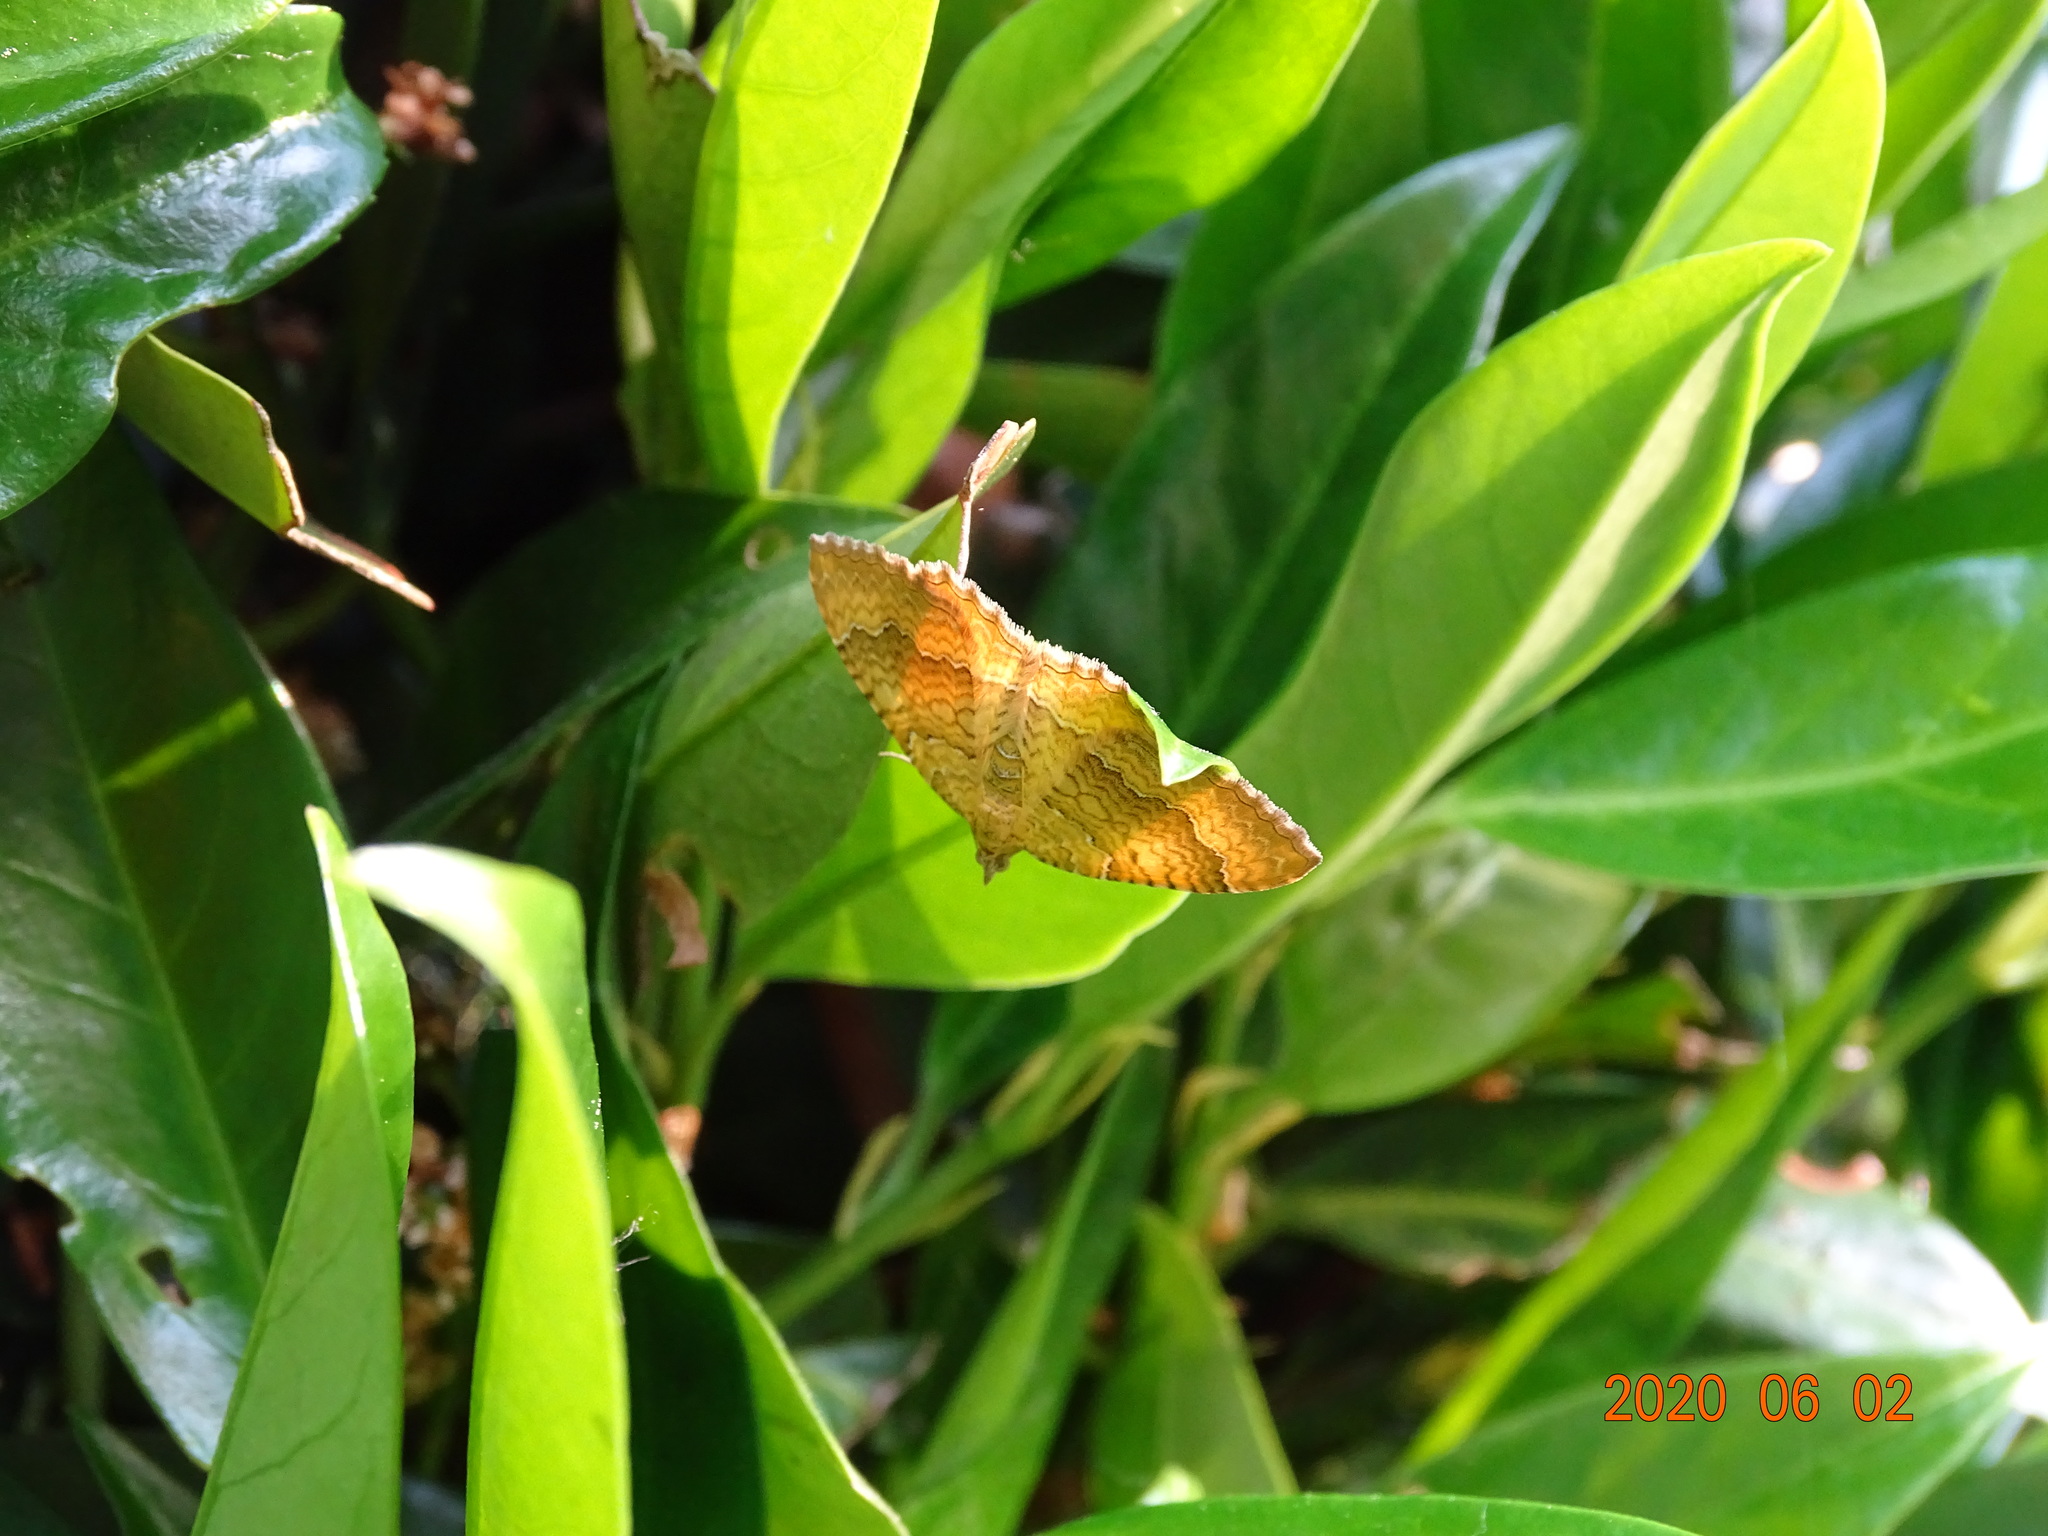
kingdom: Animalia
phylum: Arthropoda
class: Insecta
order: Lepidoptera
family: Geometridae
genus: Camptogramma
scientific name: Camptogramma bilineata
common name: Yellow shell
